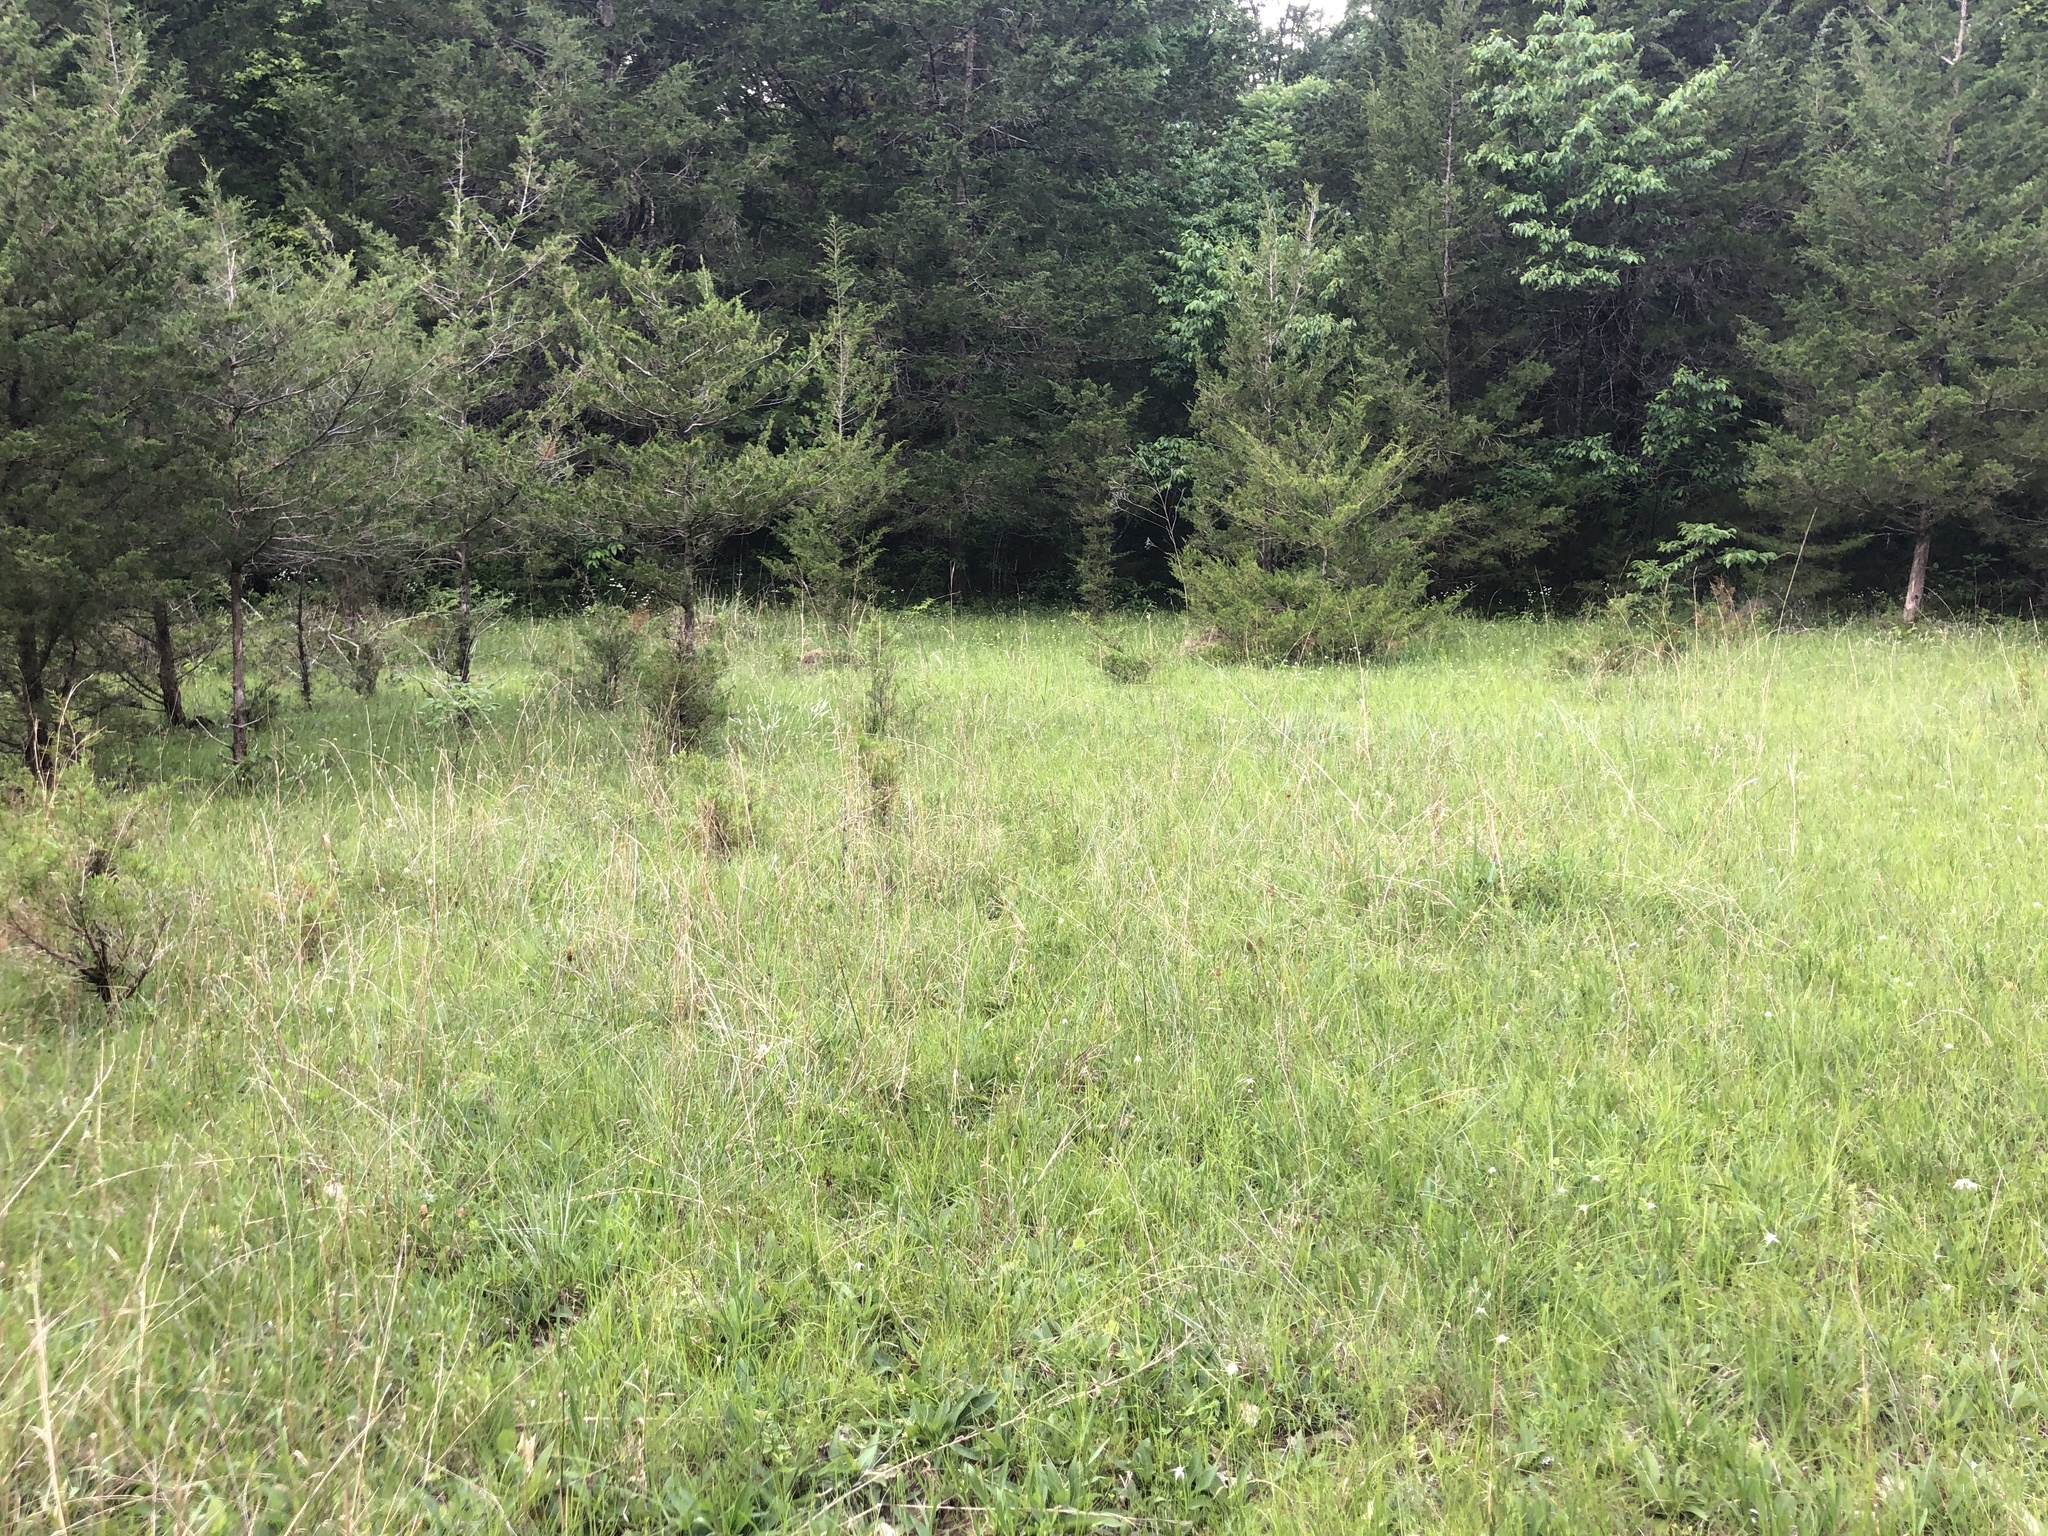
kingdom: Plantae
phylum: Tracheophyta
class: Liliopsida
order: Poales
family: Cyperaceae
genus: Rhynchospora
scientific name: Rhynchospora colorata
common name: Star sedge
